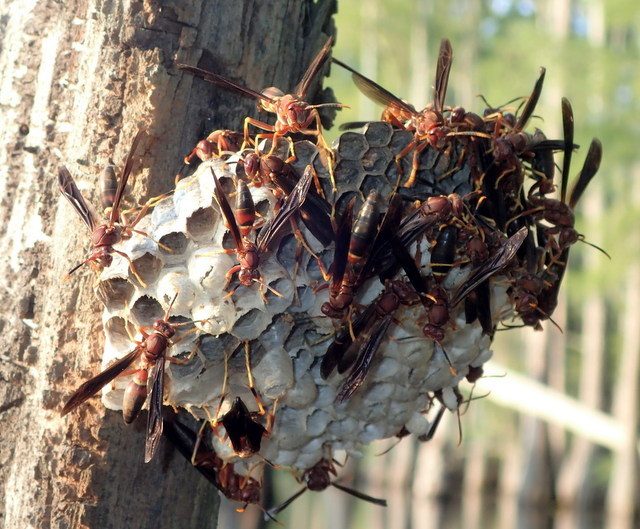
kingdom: Animalia
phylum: Arthropoda
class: Insecta
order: Hymenoptera
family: Eumenidae
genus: Polistes
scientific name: Polistes annularis
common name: Ringed paper wasp
